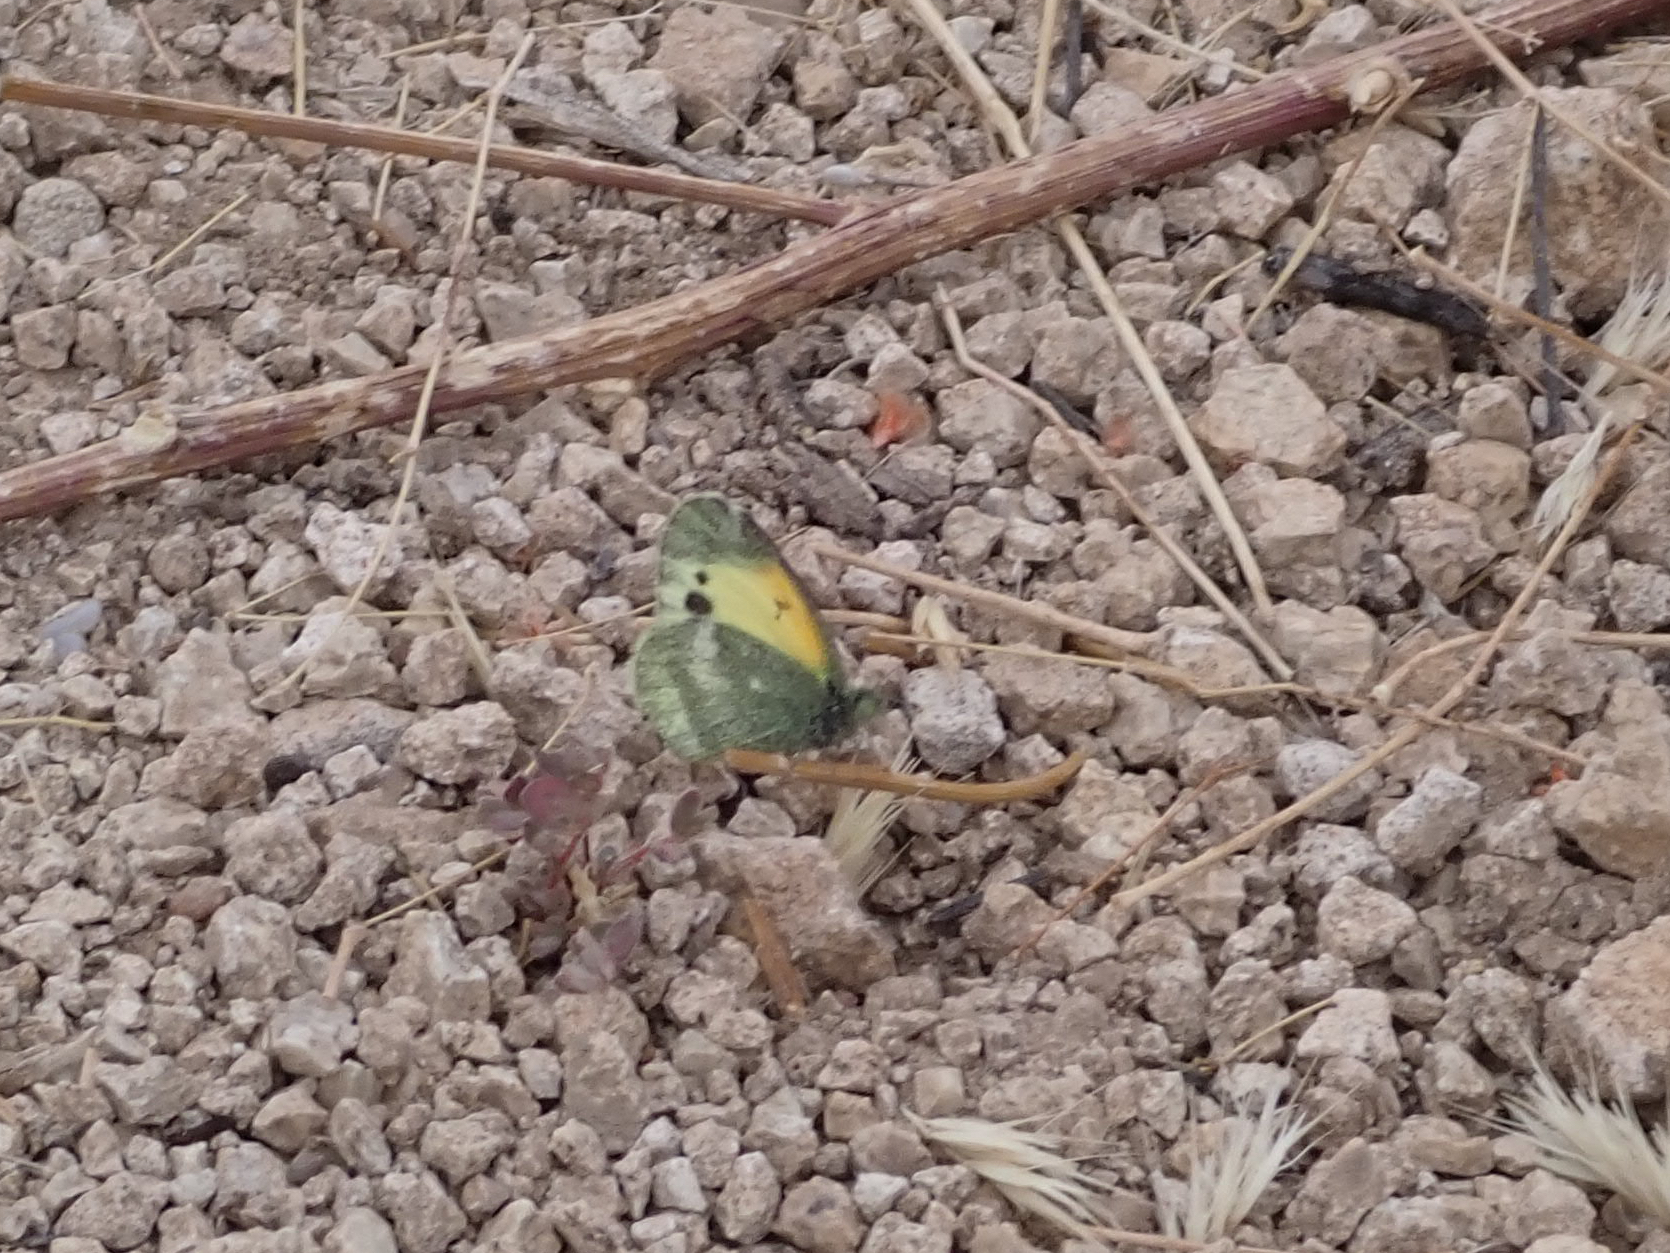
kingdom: Animalia
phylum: Arthropoda
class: Insecta
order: Lepidoptera
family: Pieridae
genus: Nathalis
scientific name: Nathalis iole
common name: Dainty sulphur
